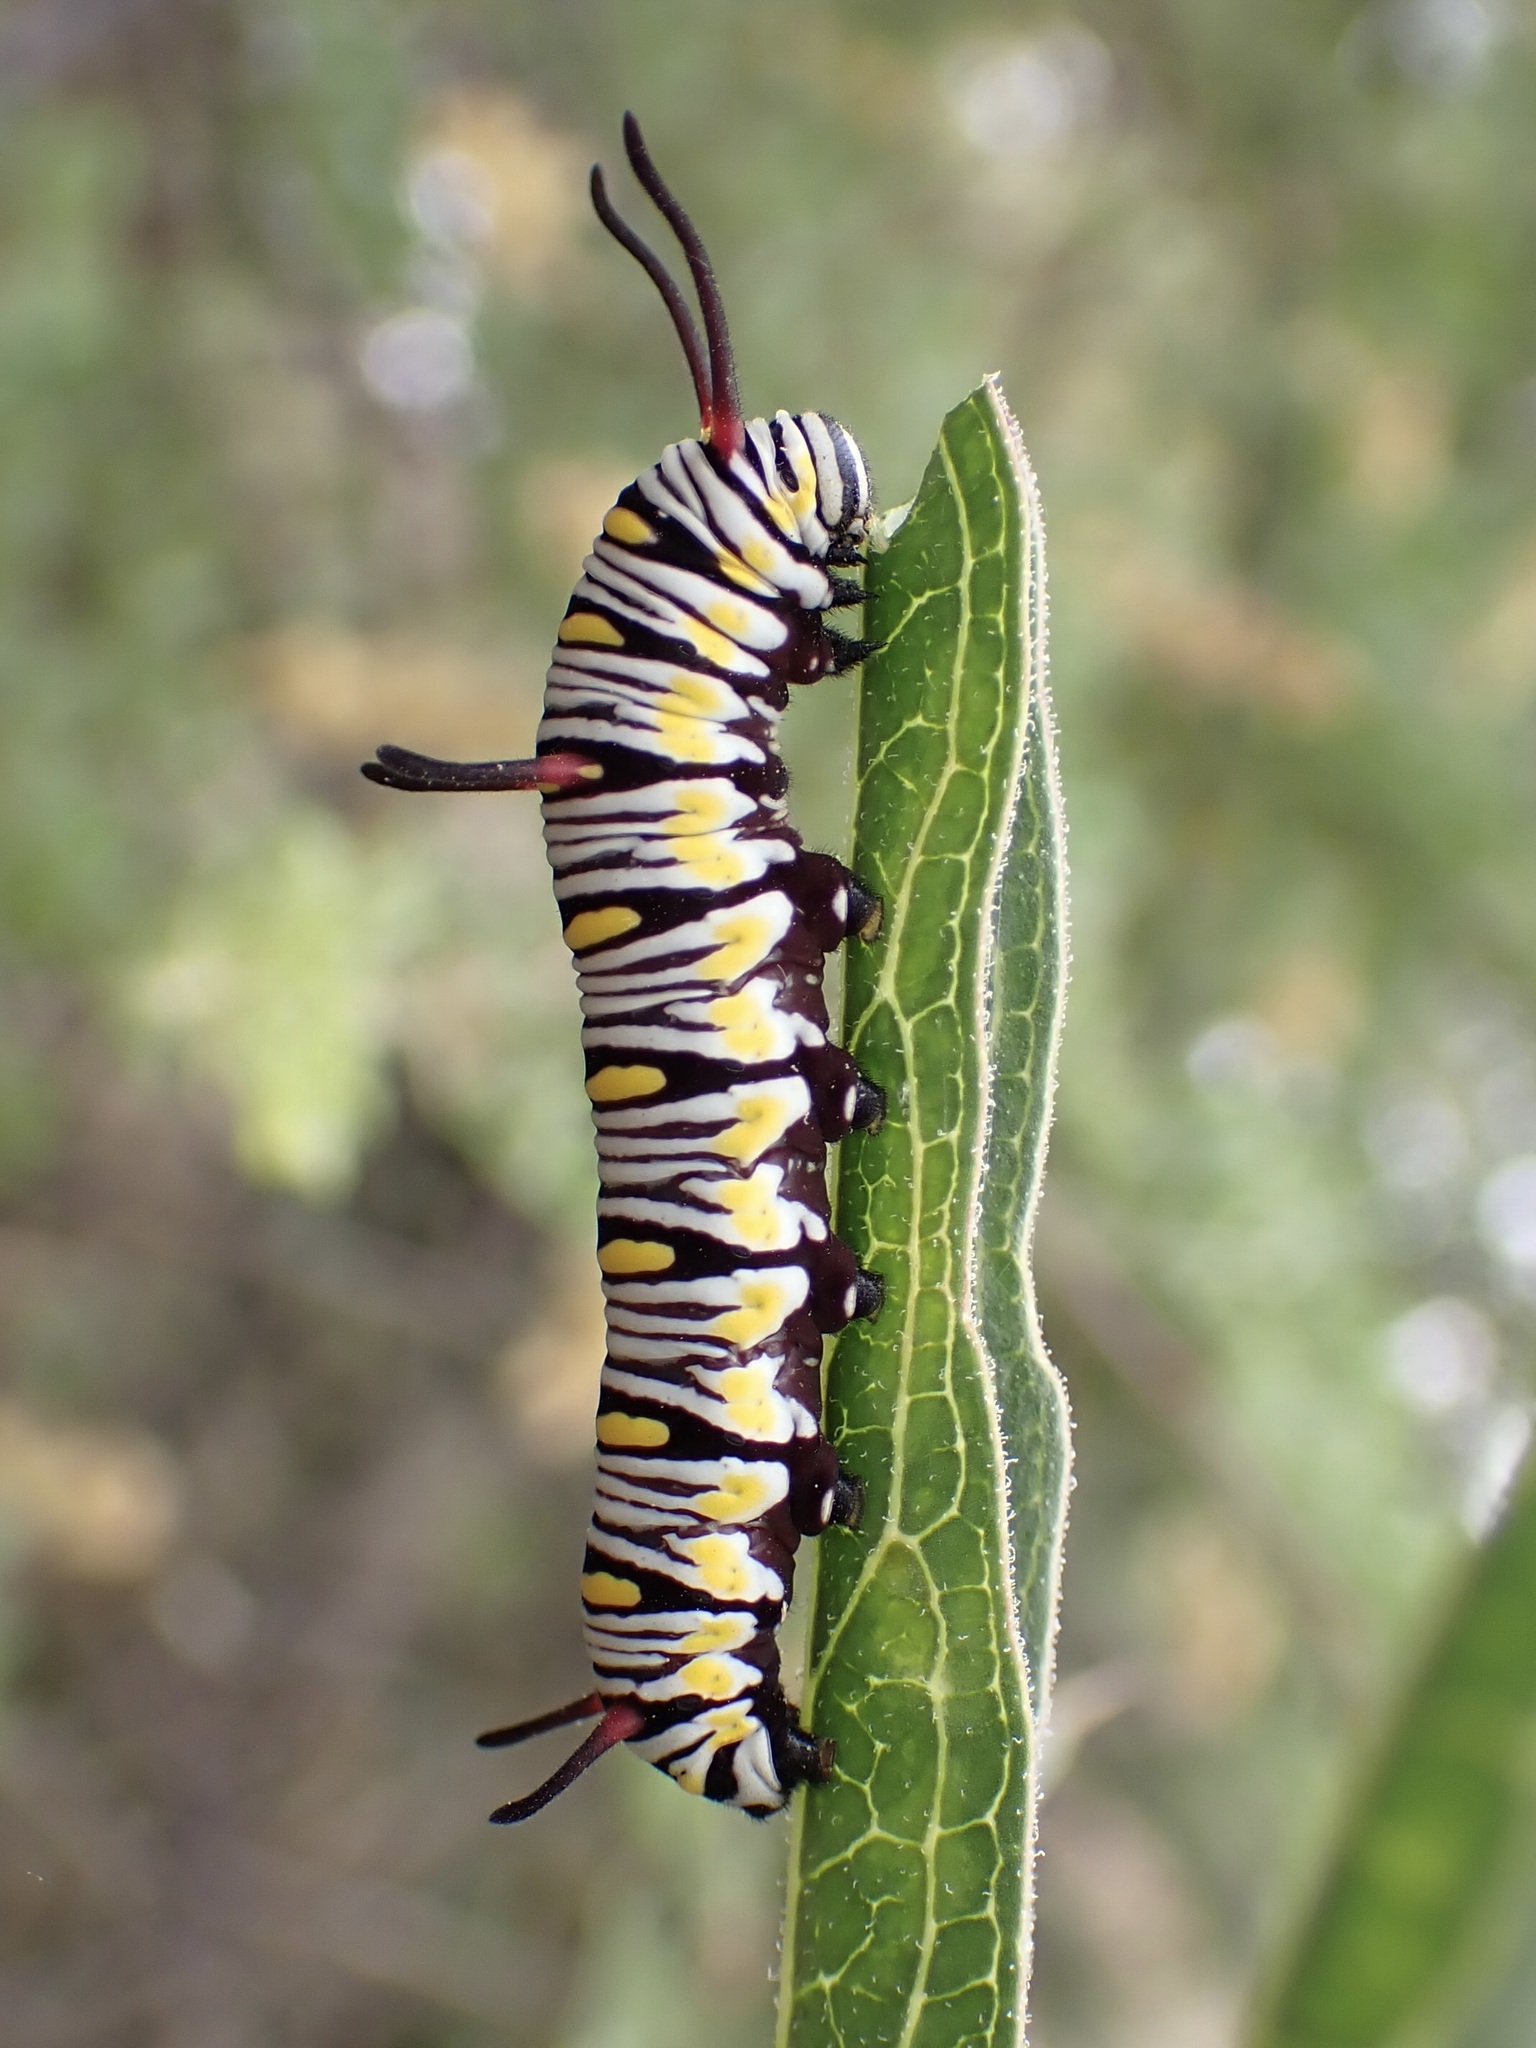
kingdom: Animalia
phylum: Arthropoda
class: Insecta
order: Lepidoptera
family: Nymphalidae
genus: Danaus
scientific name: Danaus gilippus
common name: Queen
